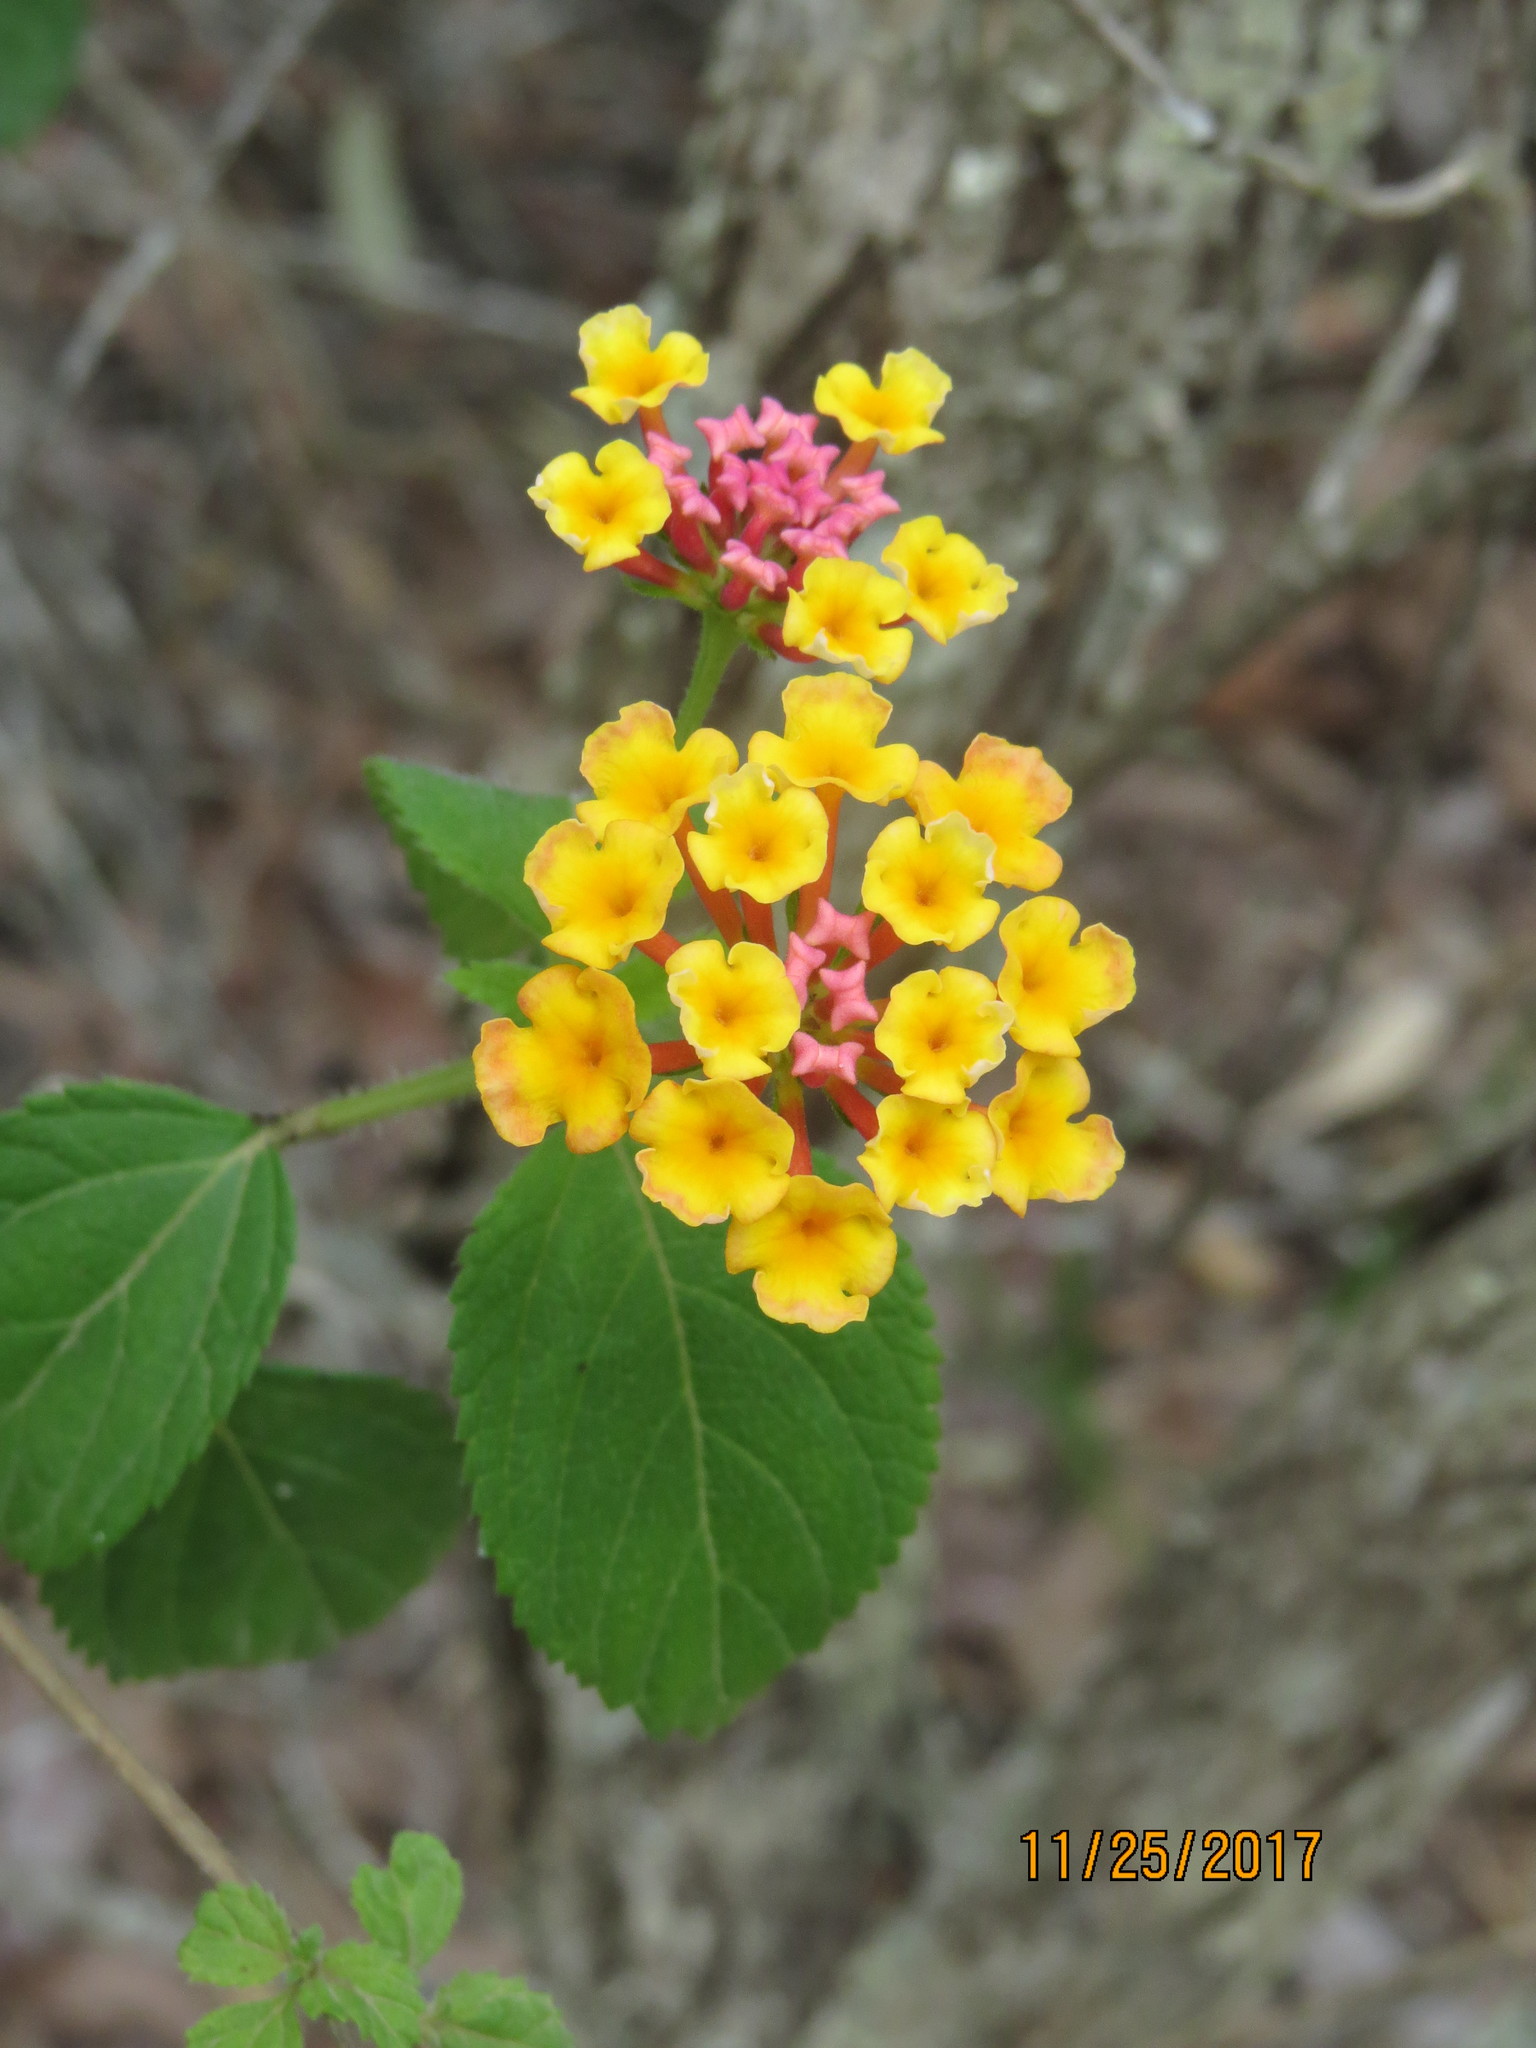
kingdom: Plantae
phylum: Tracheophyta
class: Magnoliopsida
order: Lamiales
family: Verbenaceae
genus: Lantana
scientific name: Lantana camara
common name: Lantana
